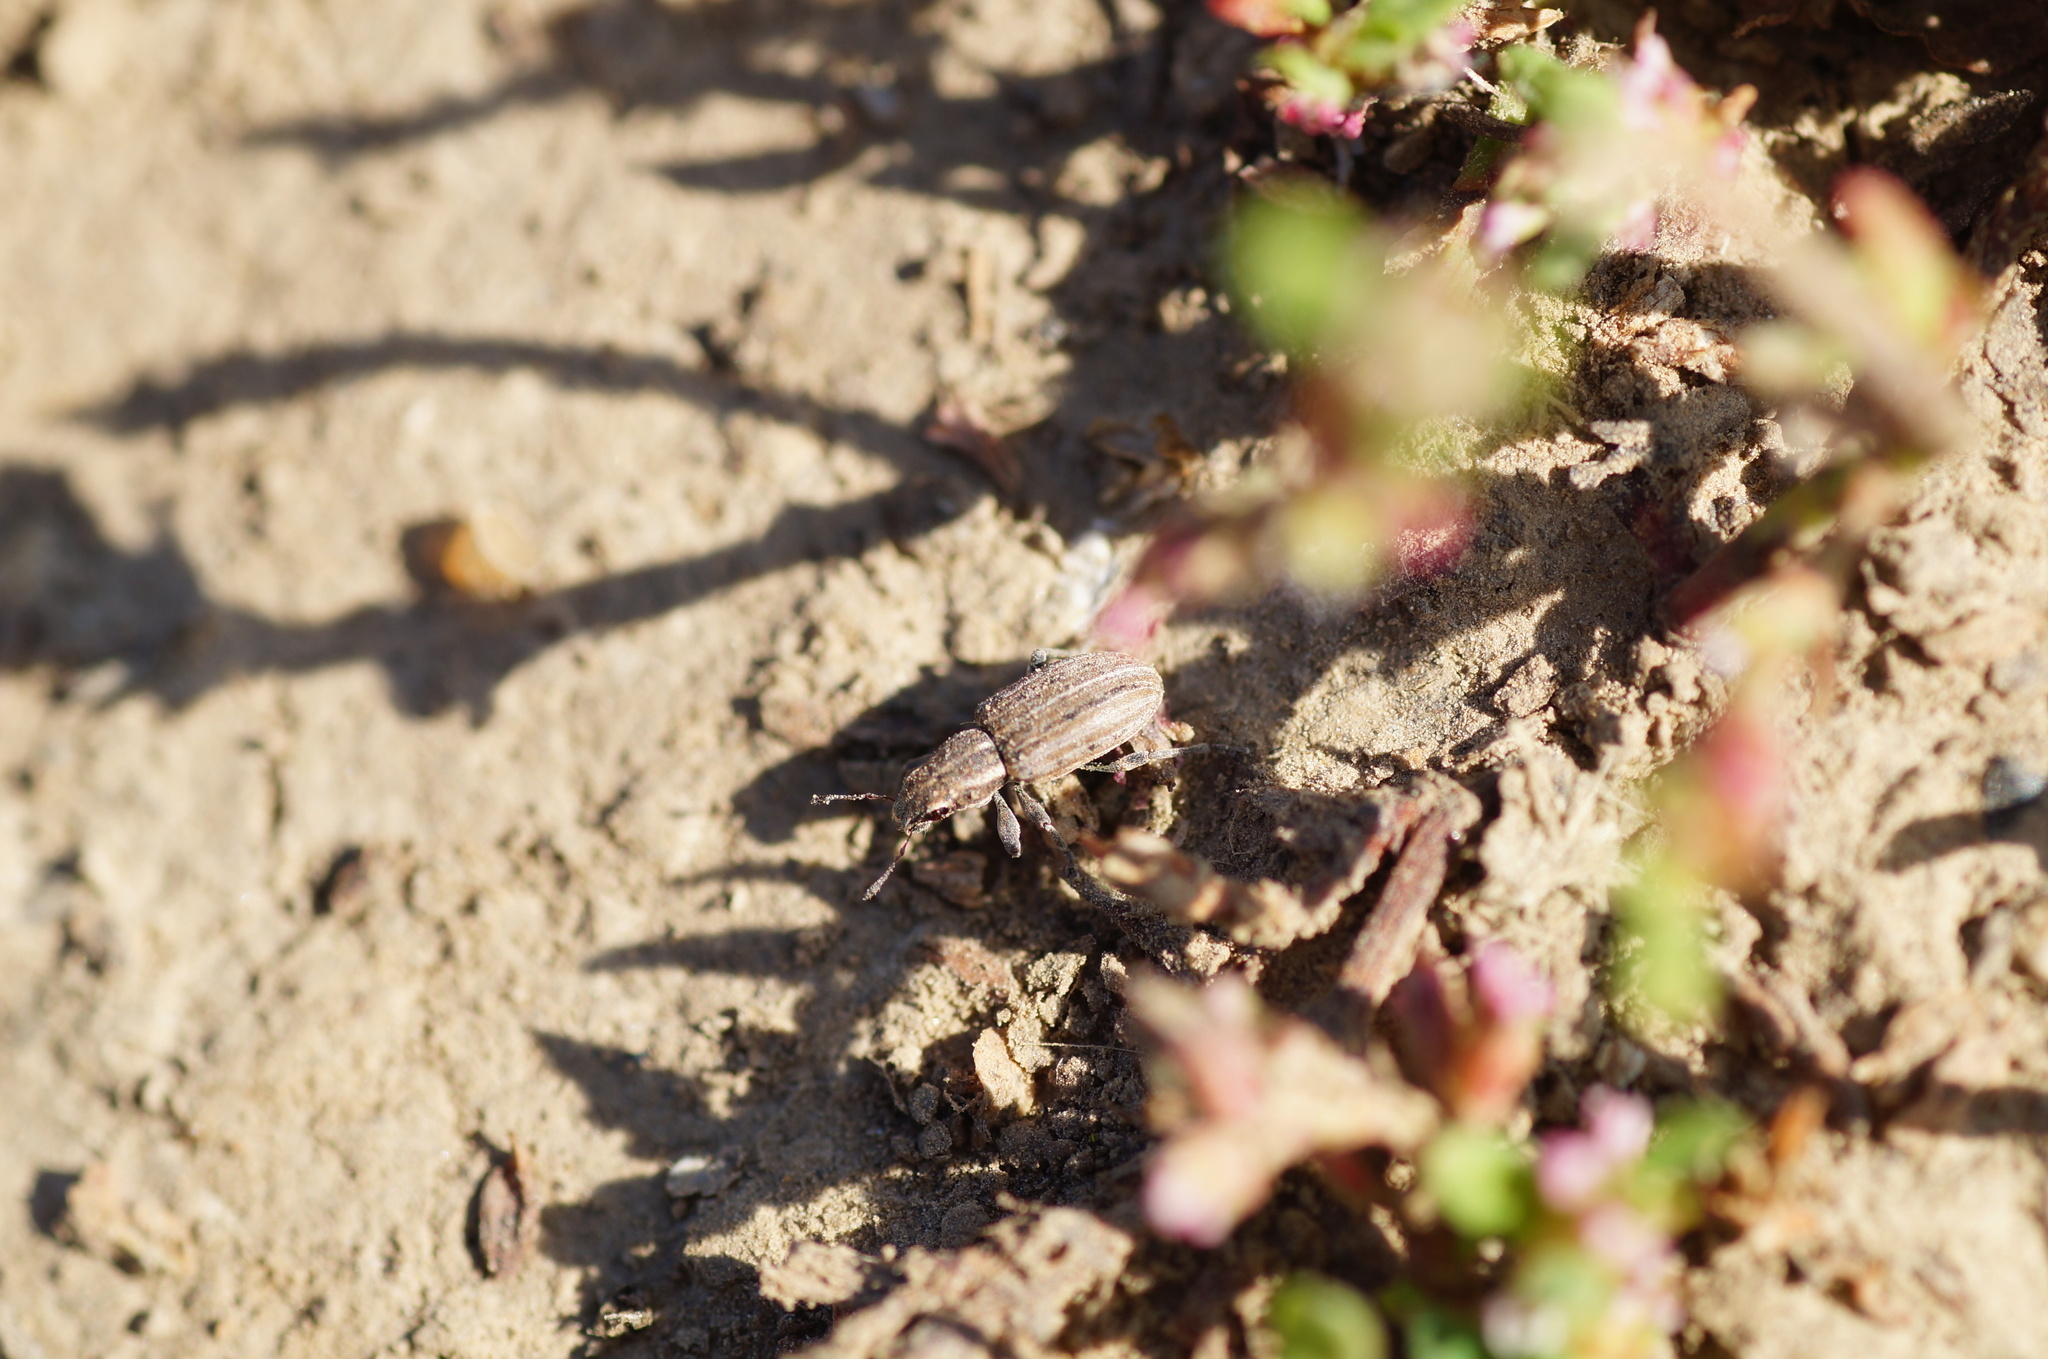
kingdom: Animalia
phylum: Arthropoda
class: Insecta
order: Coleoptera
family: Curculionidae
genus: Sitona
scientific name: Sitona
